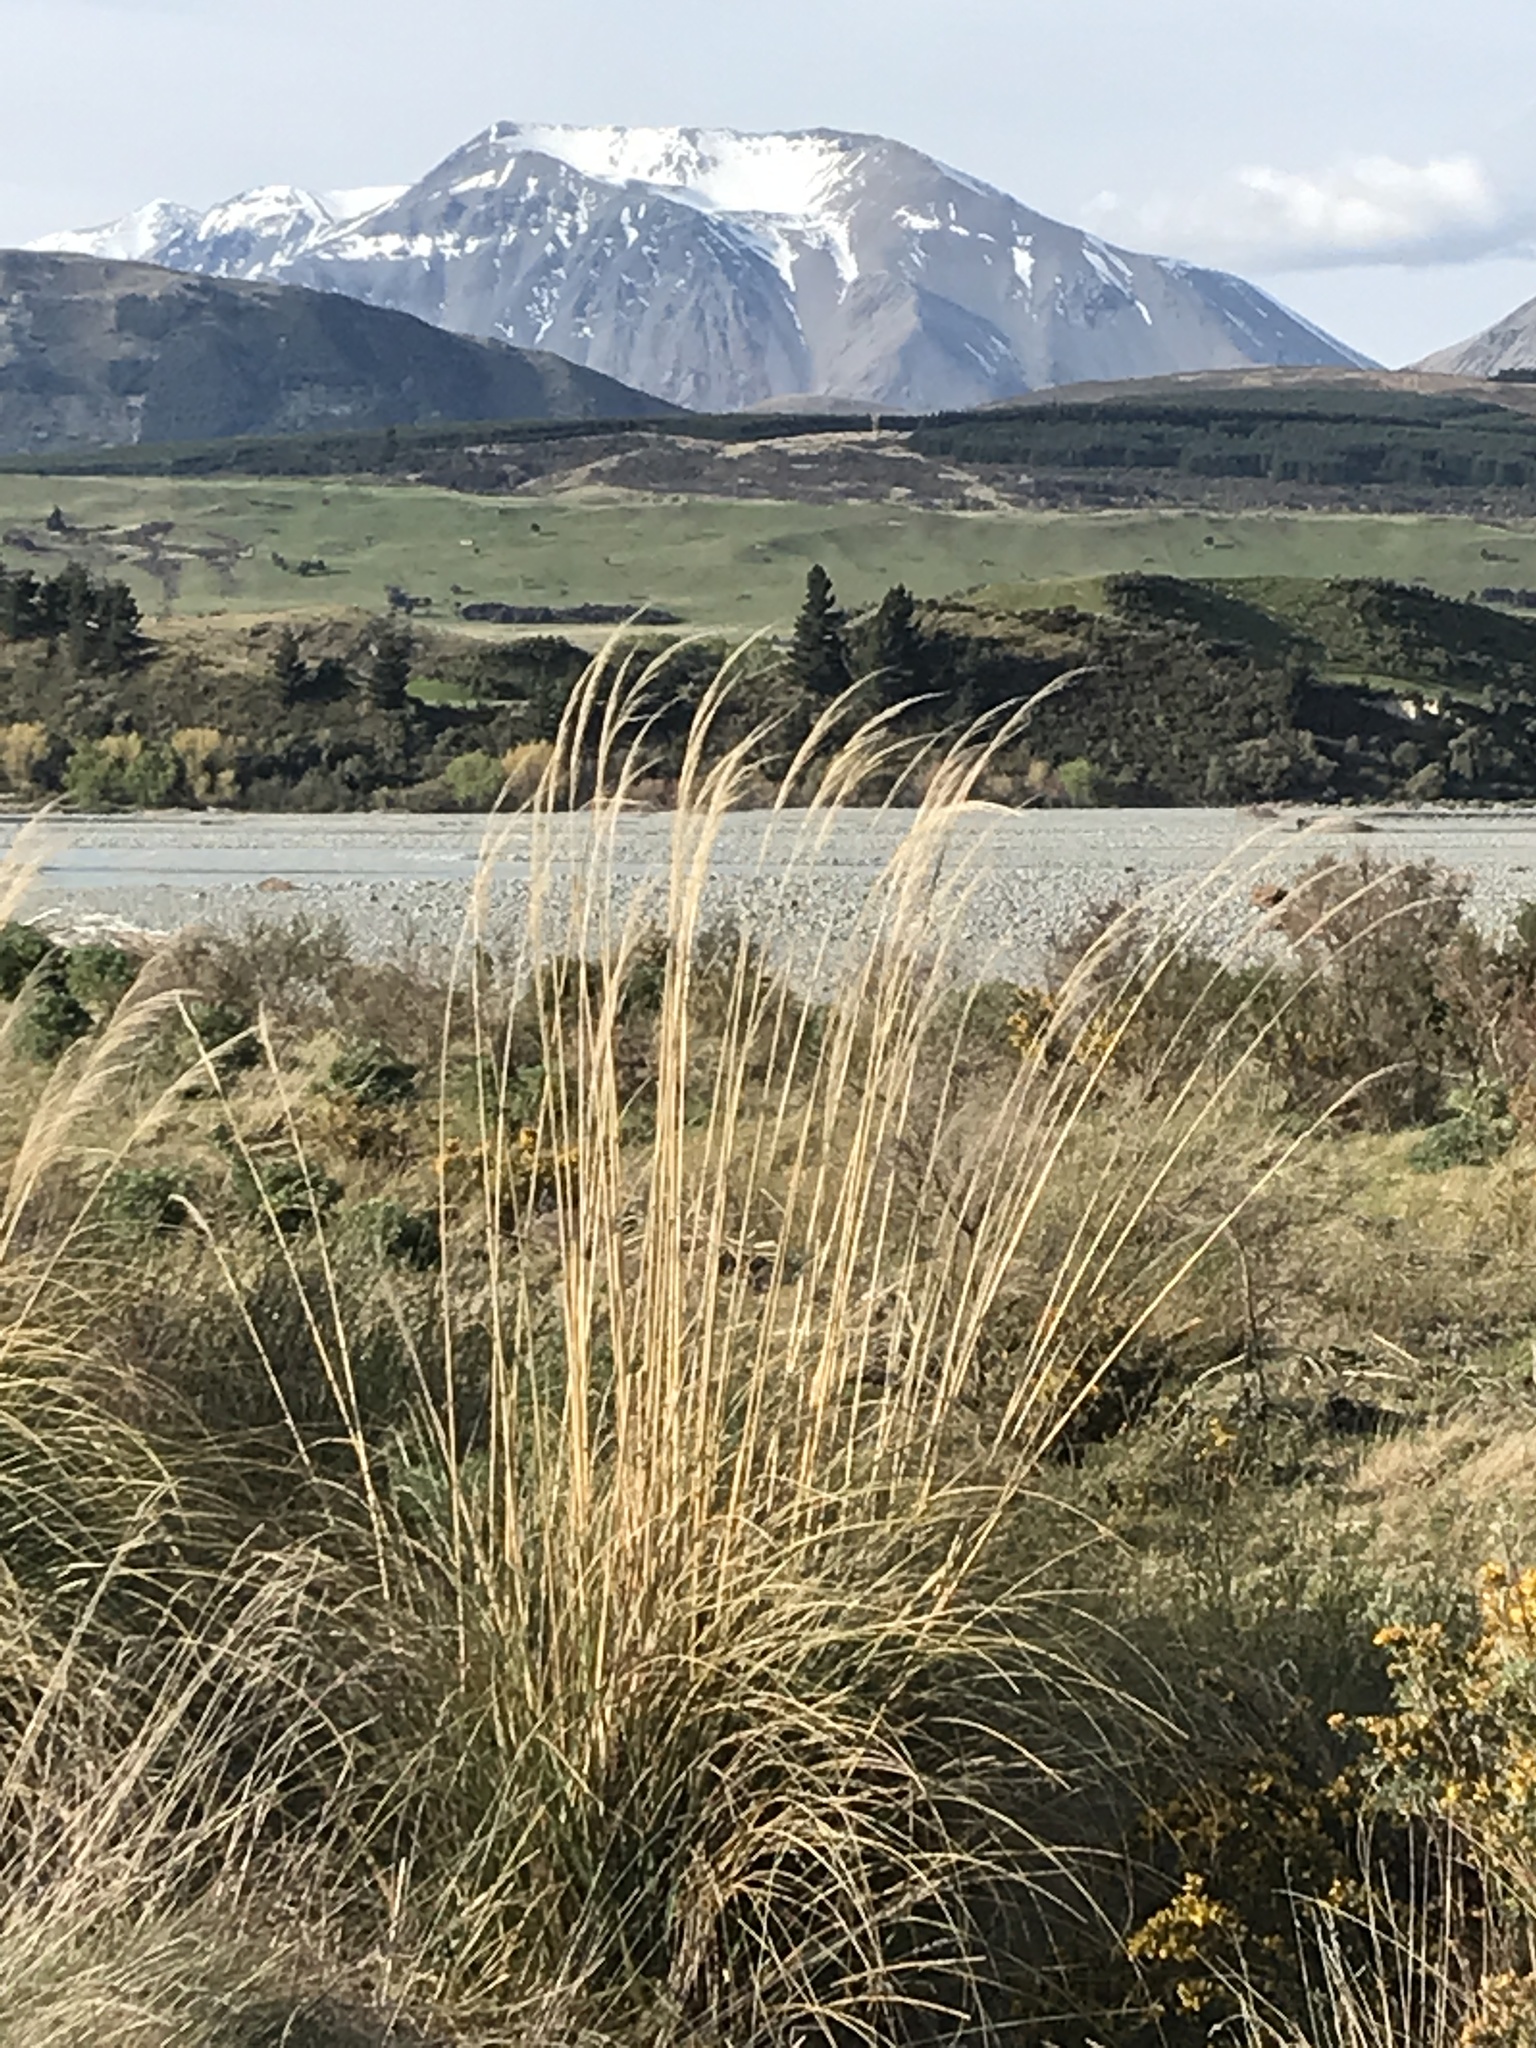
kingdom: Plantae
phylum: Tracheophyta
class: Liliopsida
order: Poales
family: Poaceae
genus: Austroderia
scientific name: Austroderia richardii
